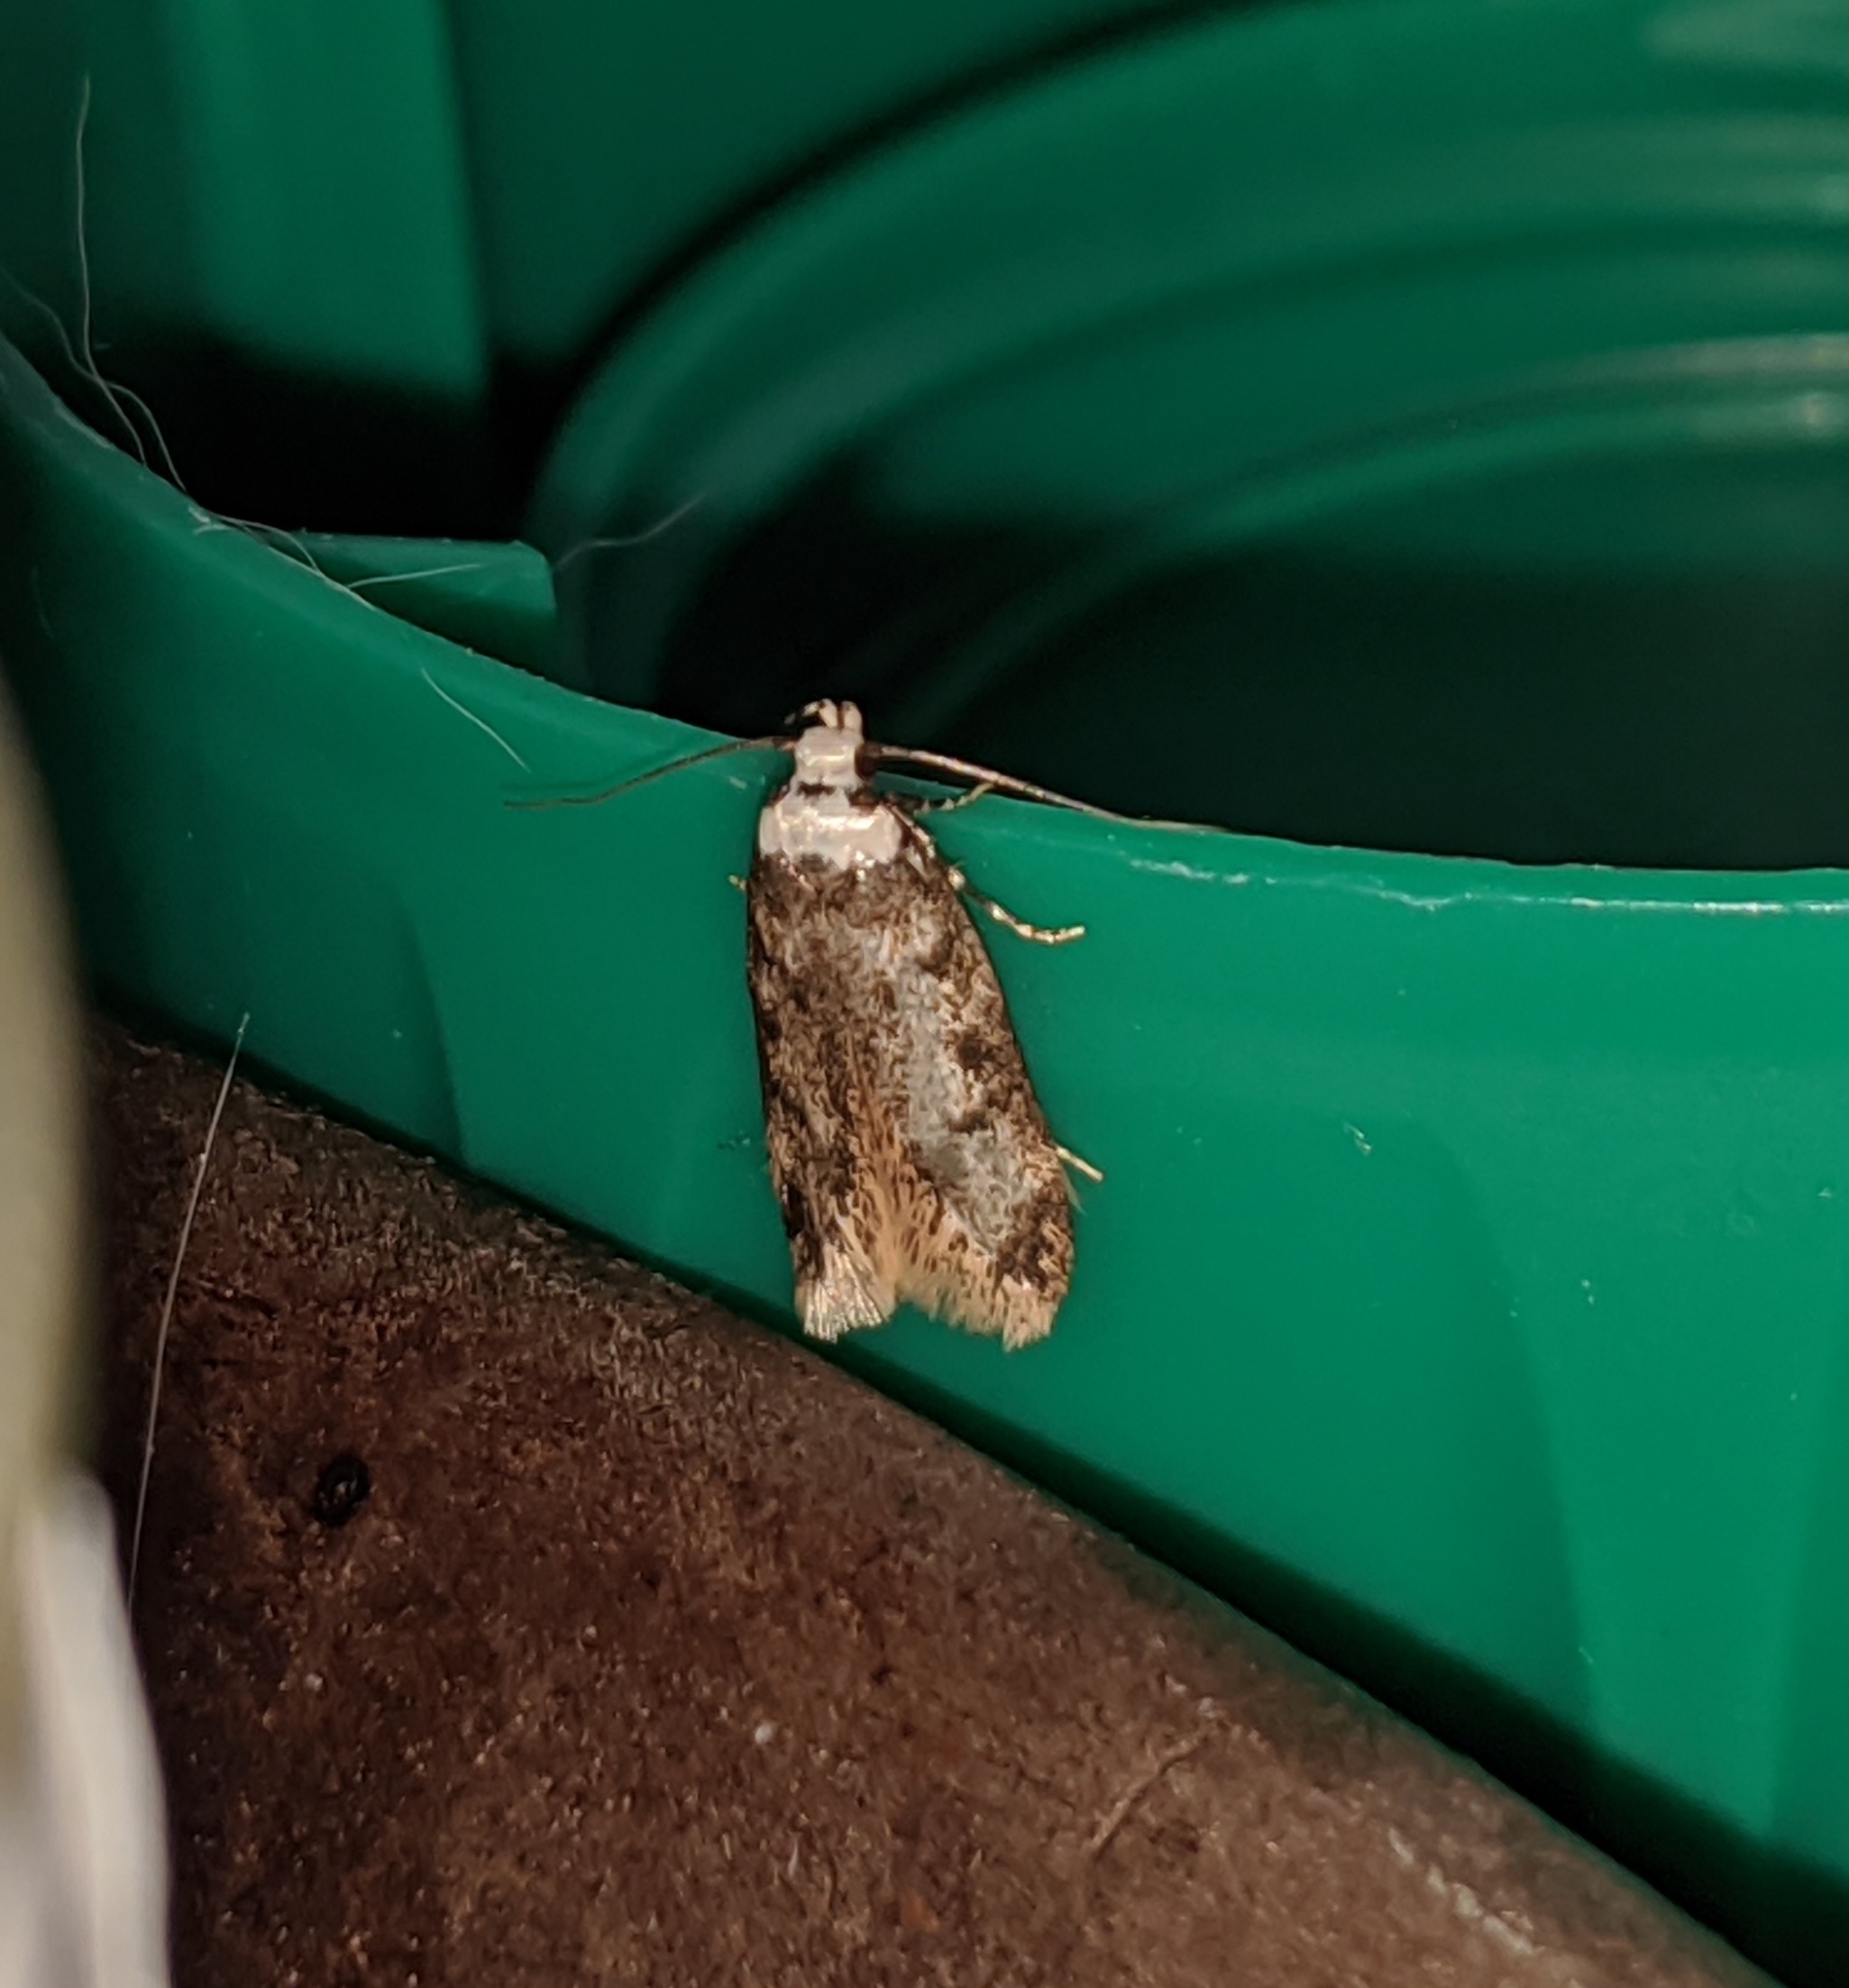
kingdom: Animalia
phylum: Arthropoda
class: Insecta
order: Lepidoptera
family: Oecophoridae
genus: Endrosis
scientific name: Endrosis sarcitrella
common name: White-shouldered house moth
